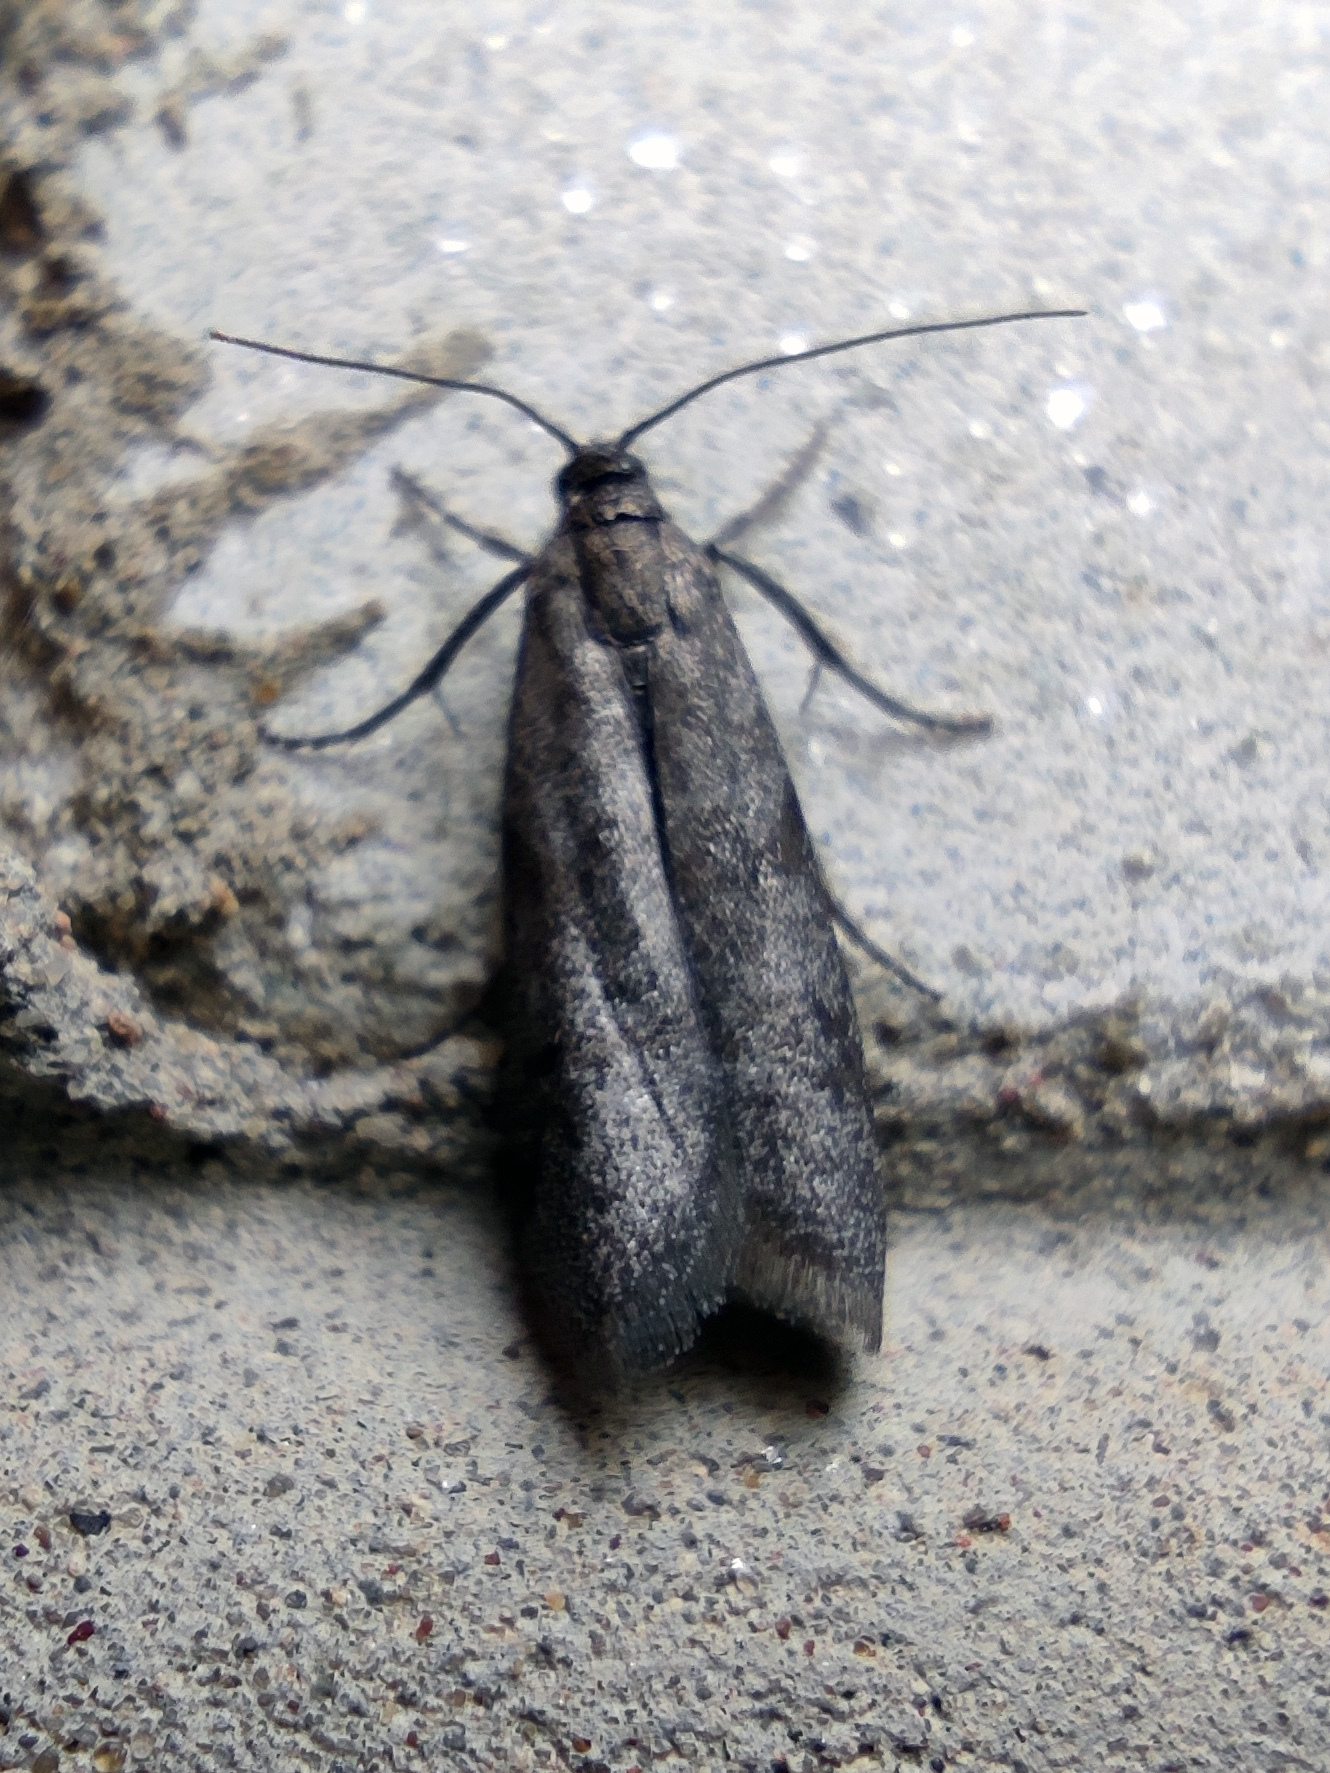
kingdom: Animalia
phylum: Arthropoda
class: Insecta
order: Lepidoptera
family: Pyralidae
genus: Myelois
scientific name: Myelois tetricella
